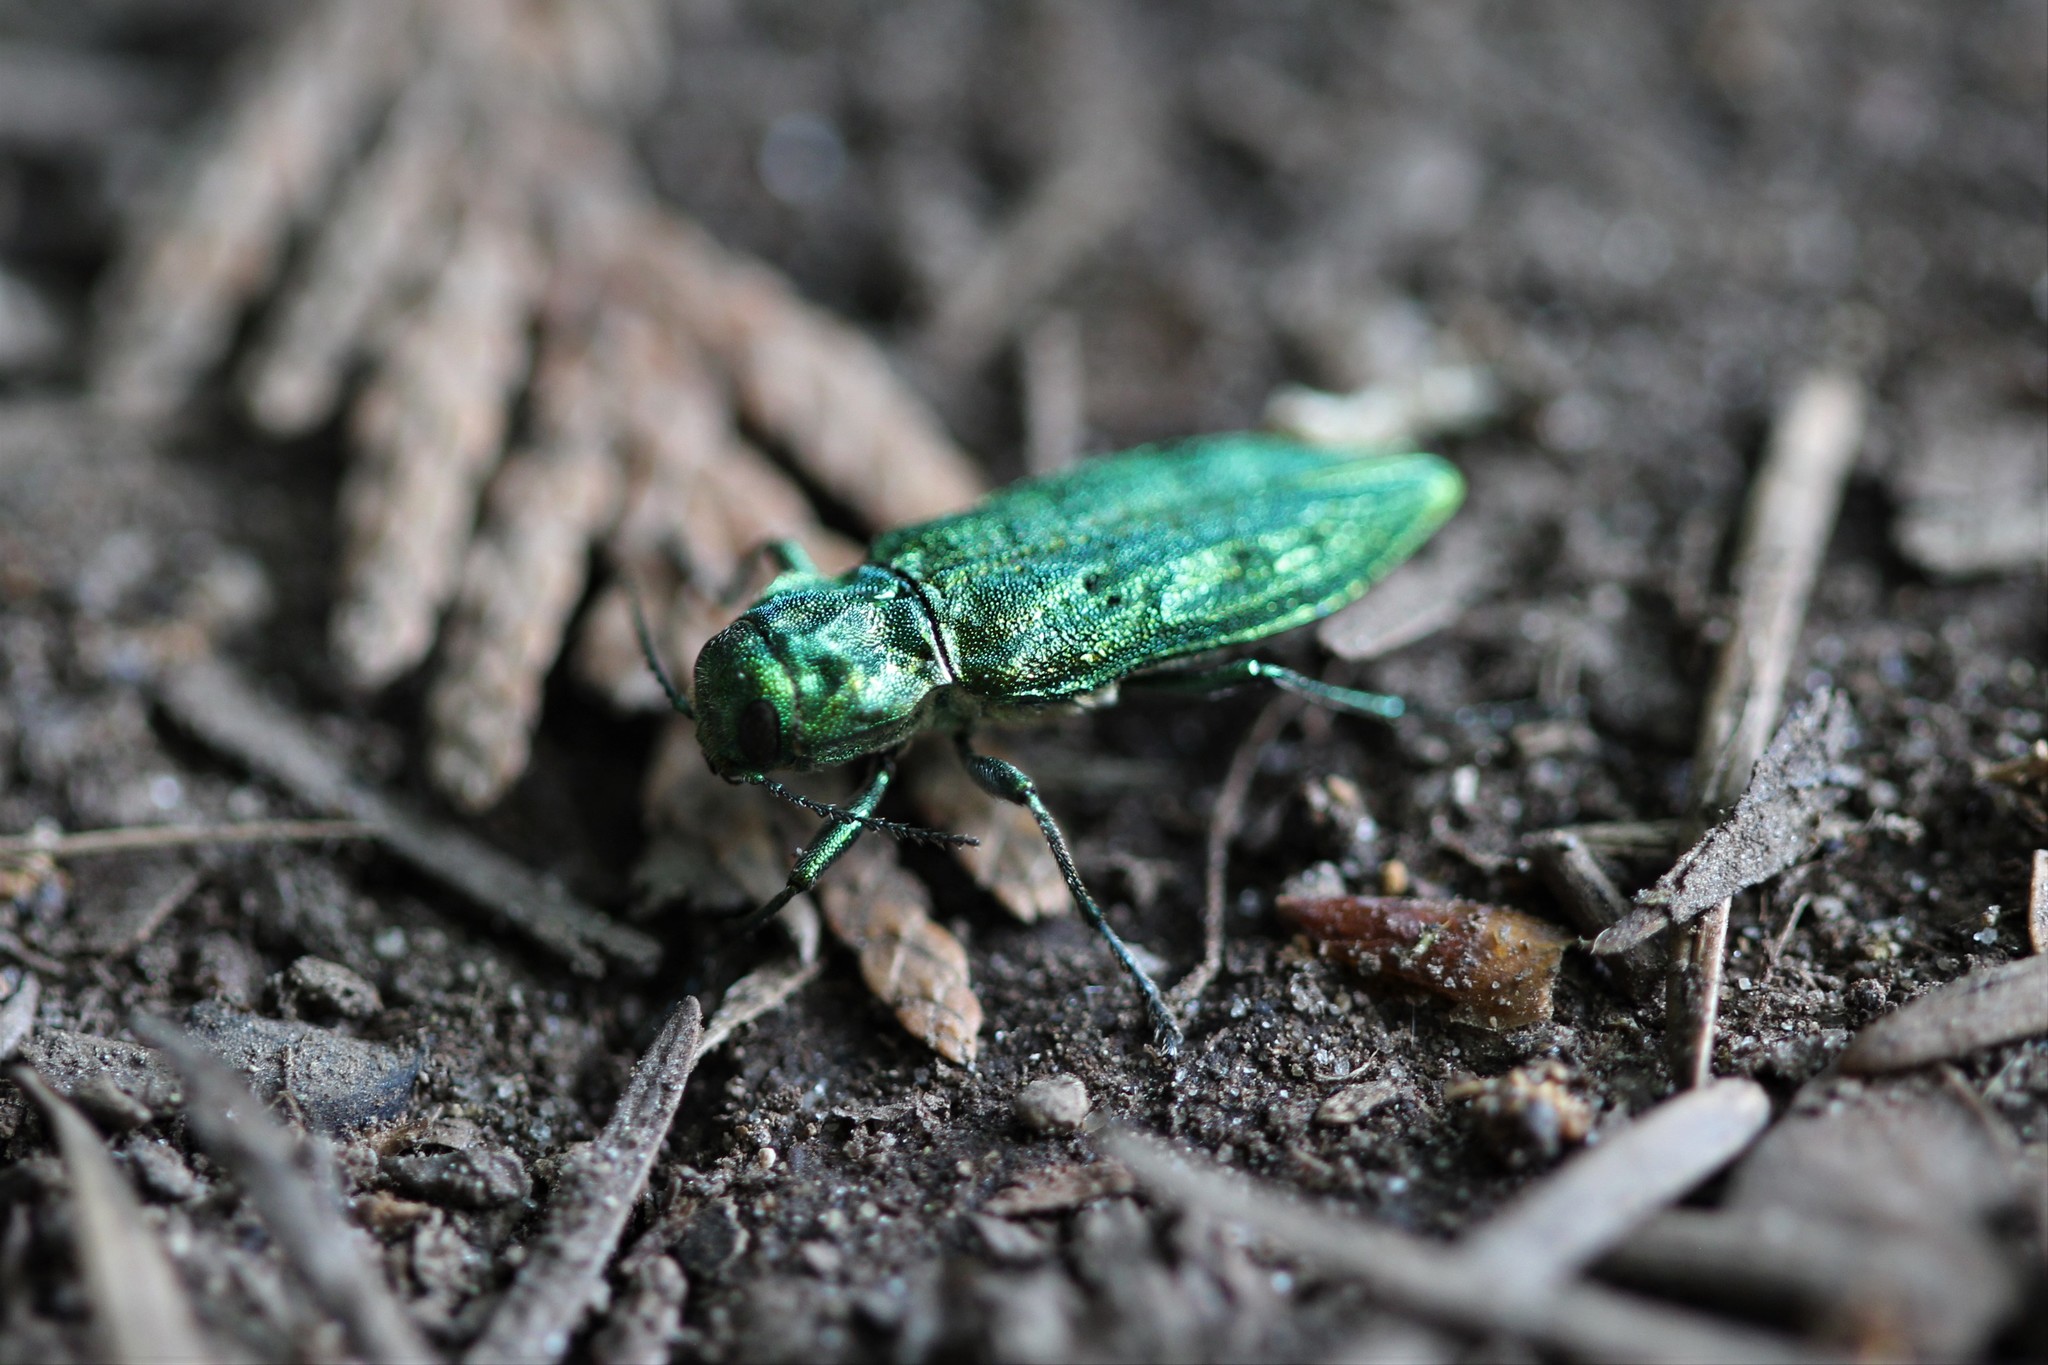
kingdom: Animalia
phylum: Arthropoda
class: Insecta
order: Coleoptera
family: Buprestidae
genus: Trachykele
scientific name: Trachykele blondeli
